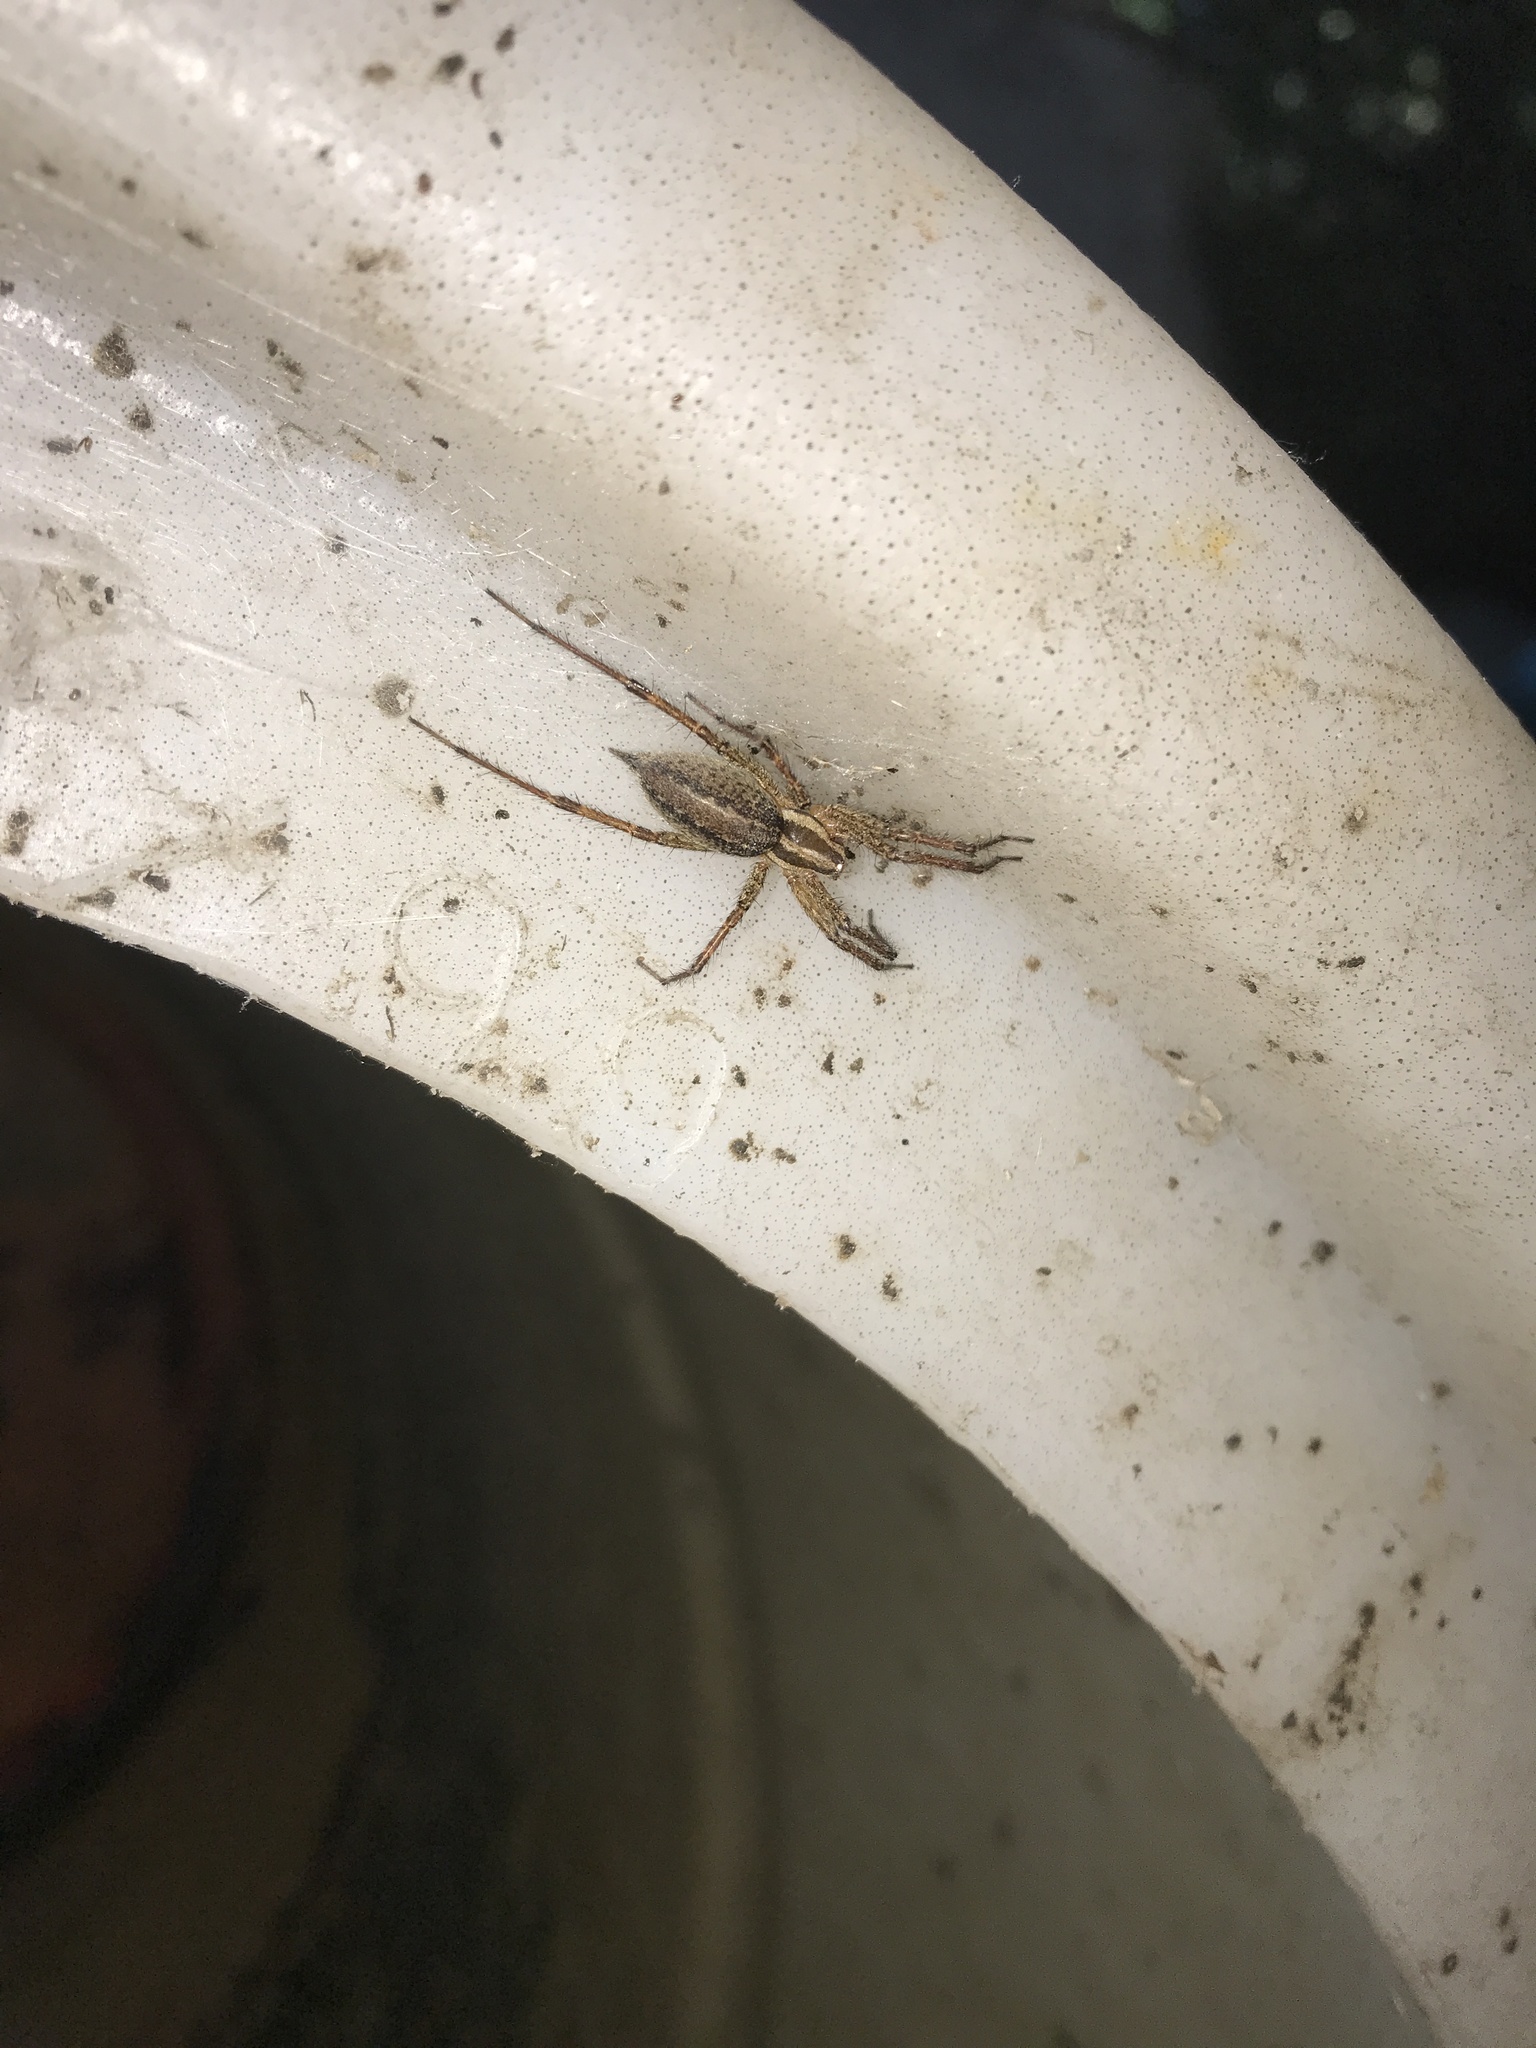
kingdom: Animalia
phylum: Arthropoda
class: Arachnida
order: Araneae
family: Agelenidae
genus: Agelenopsis
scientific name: Agelenopsis
